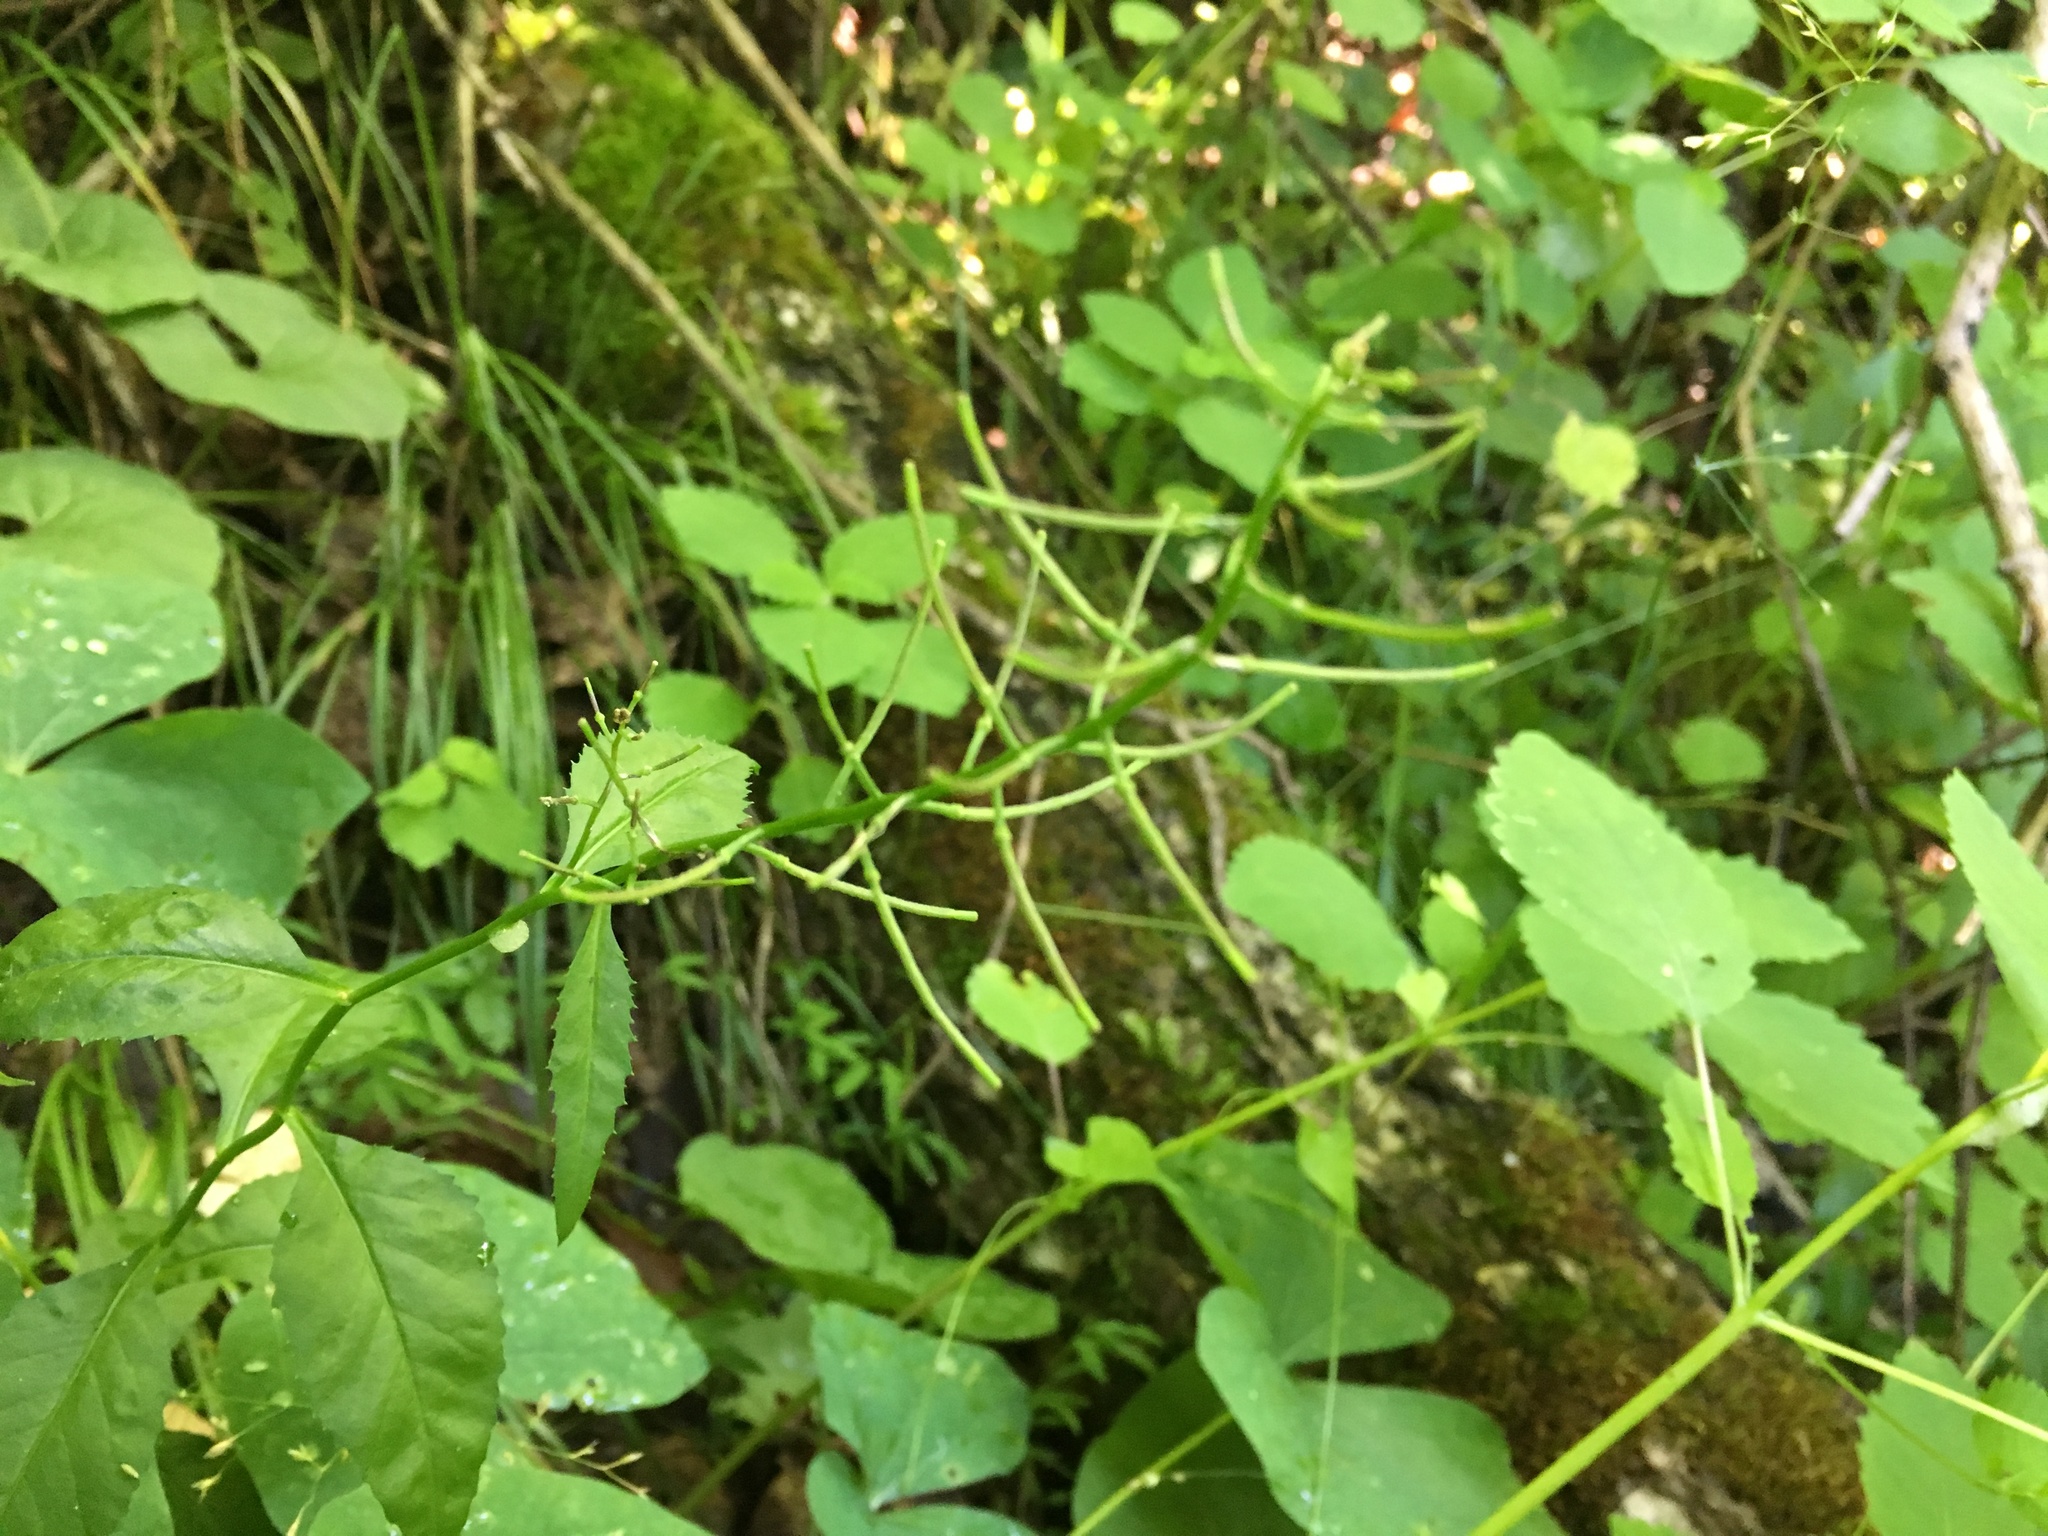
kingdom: Plantae
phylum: Tracheophyta
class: Magnoliopsida
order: Brassicales
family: Brassicaceae
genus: Iodanthus
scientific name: Iodanthus pinnatifidus
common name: Violet rocket
